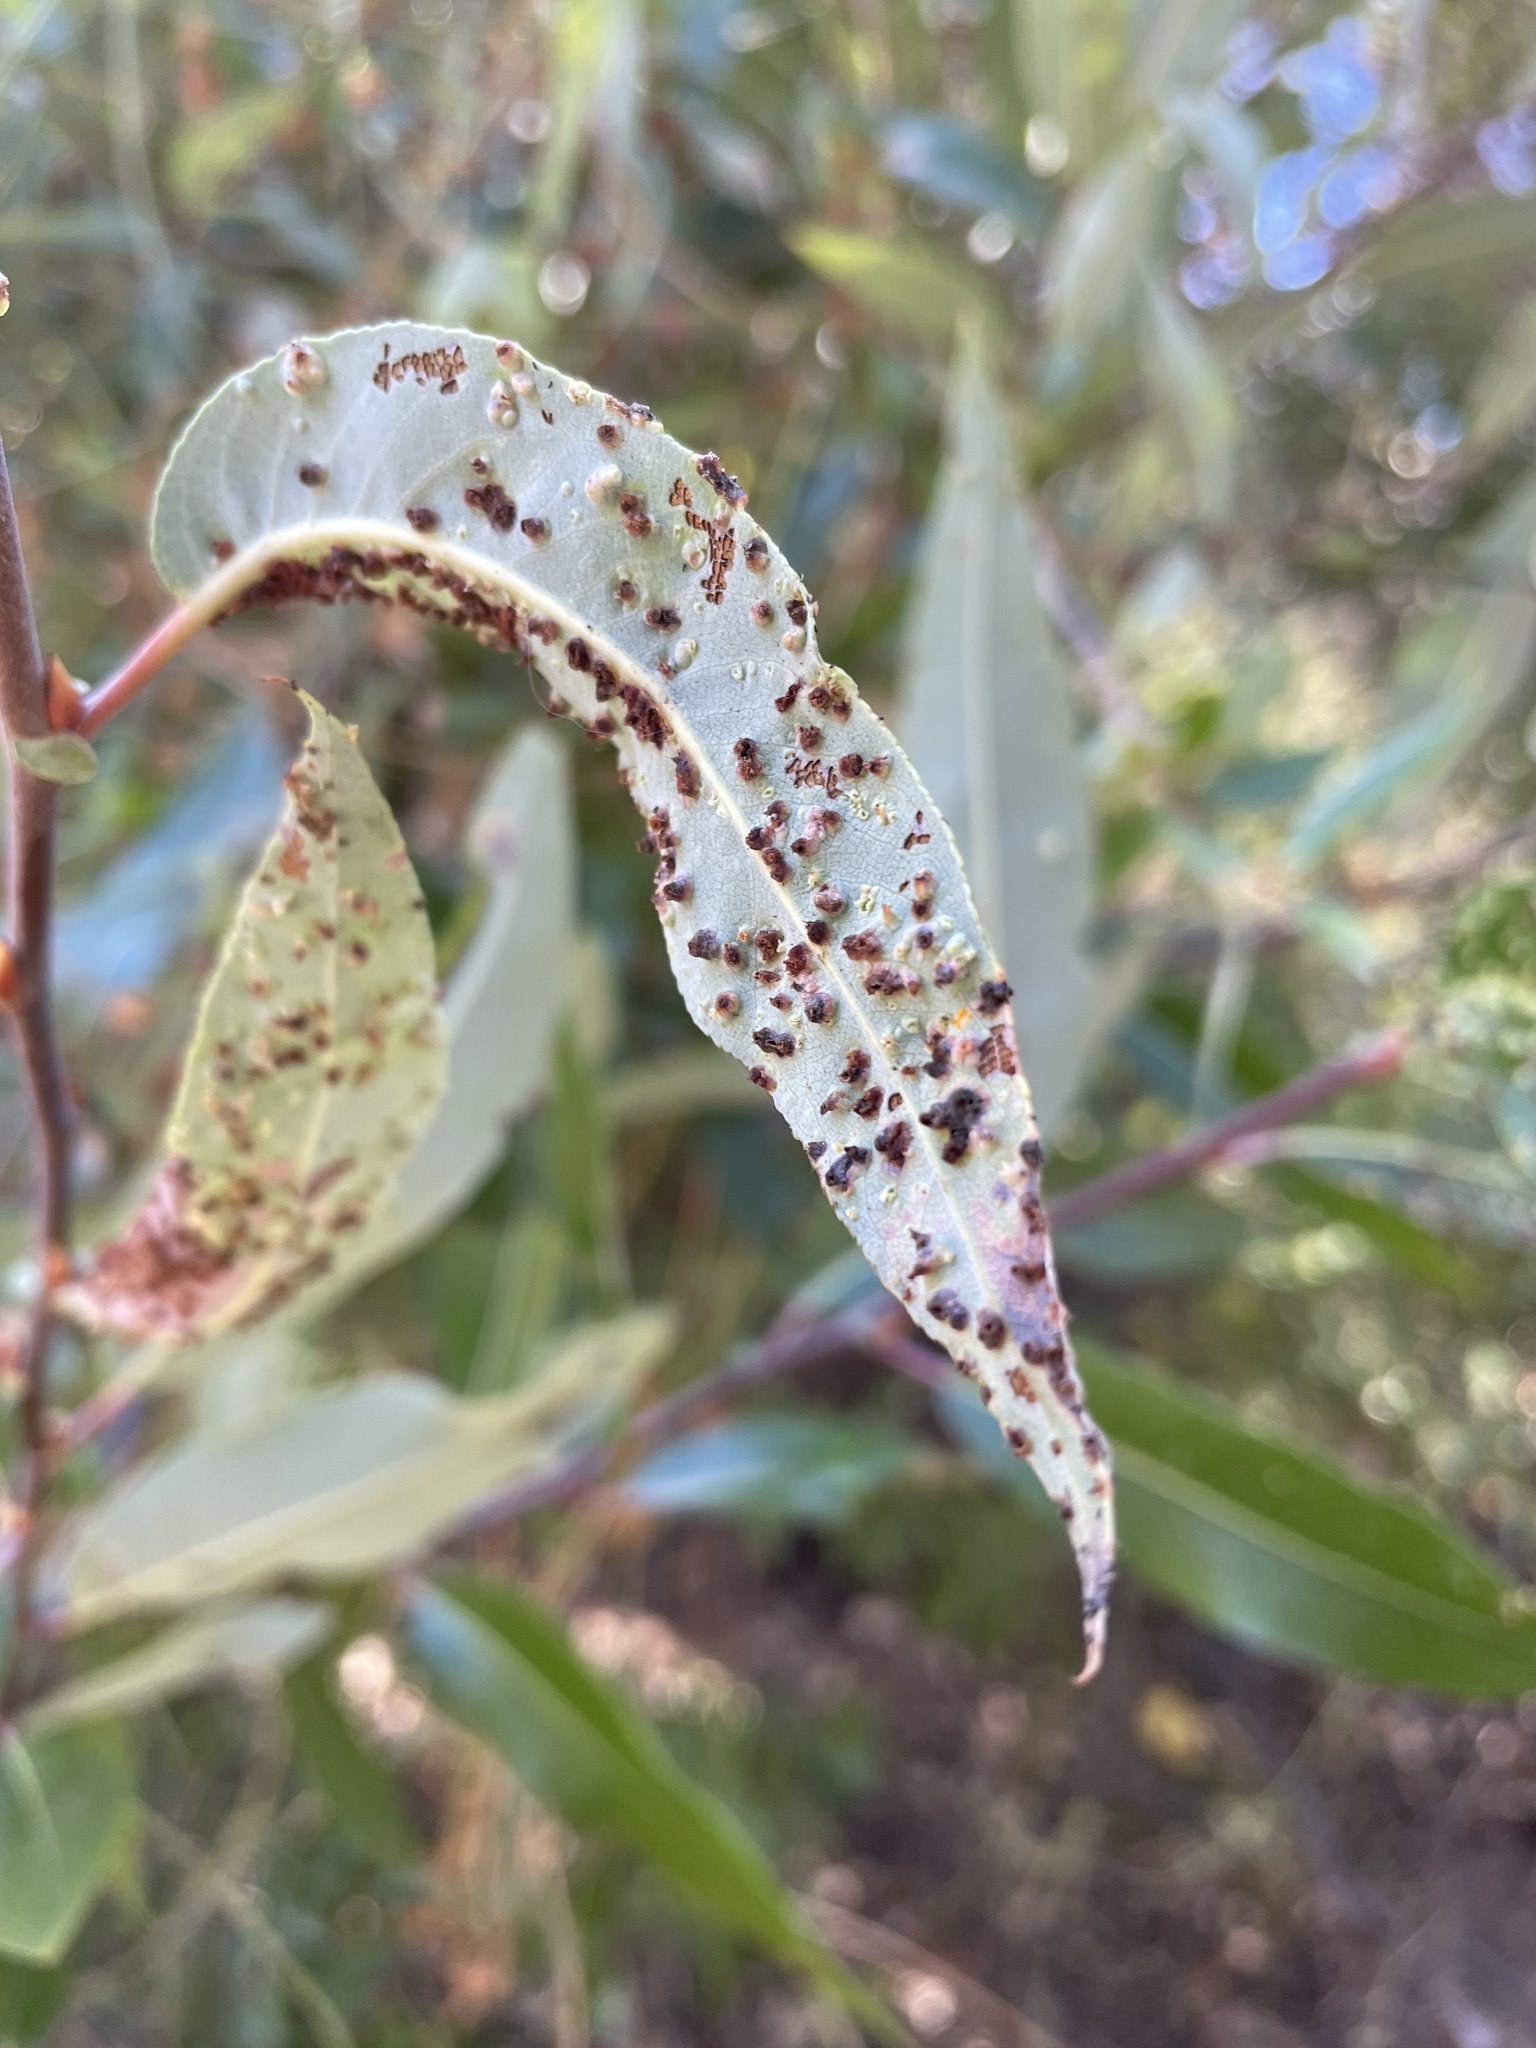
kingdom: Animalia
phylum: Arthropoda
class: Arachnida
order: Trombidiformes
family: Eriophyidae
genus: Aculus
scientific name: Aculus tetanothrix
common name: Willow bead gall mite
